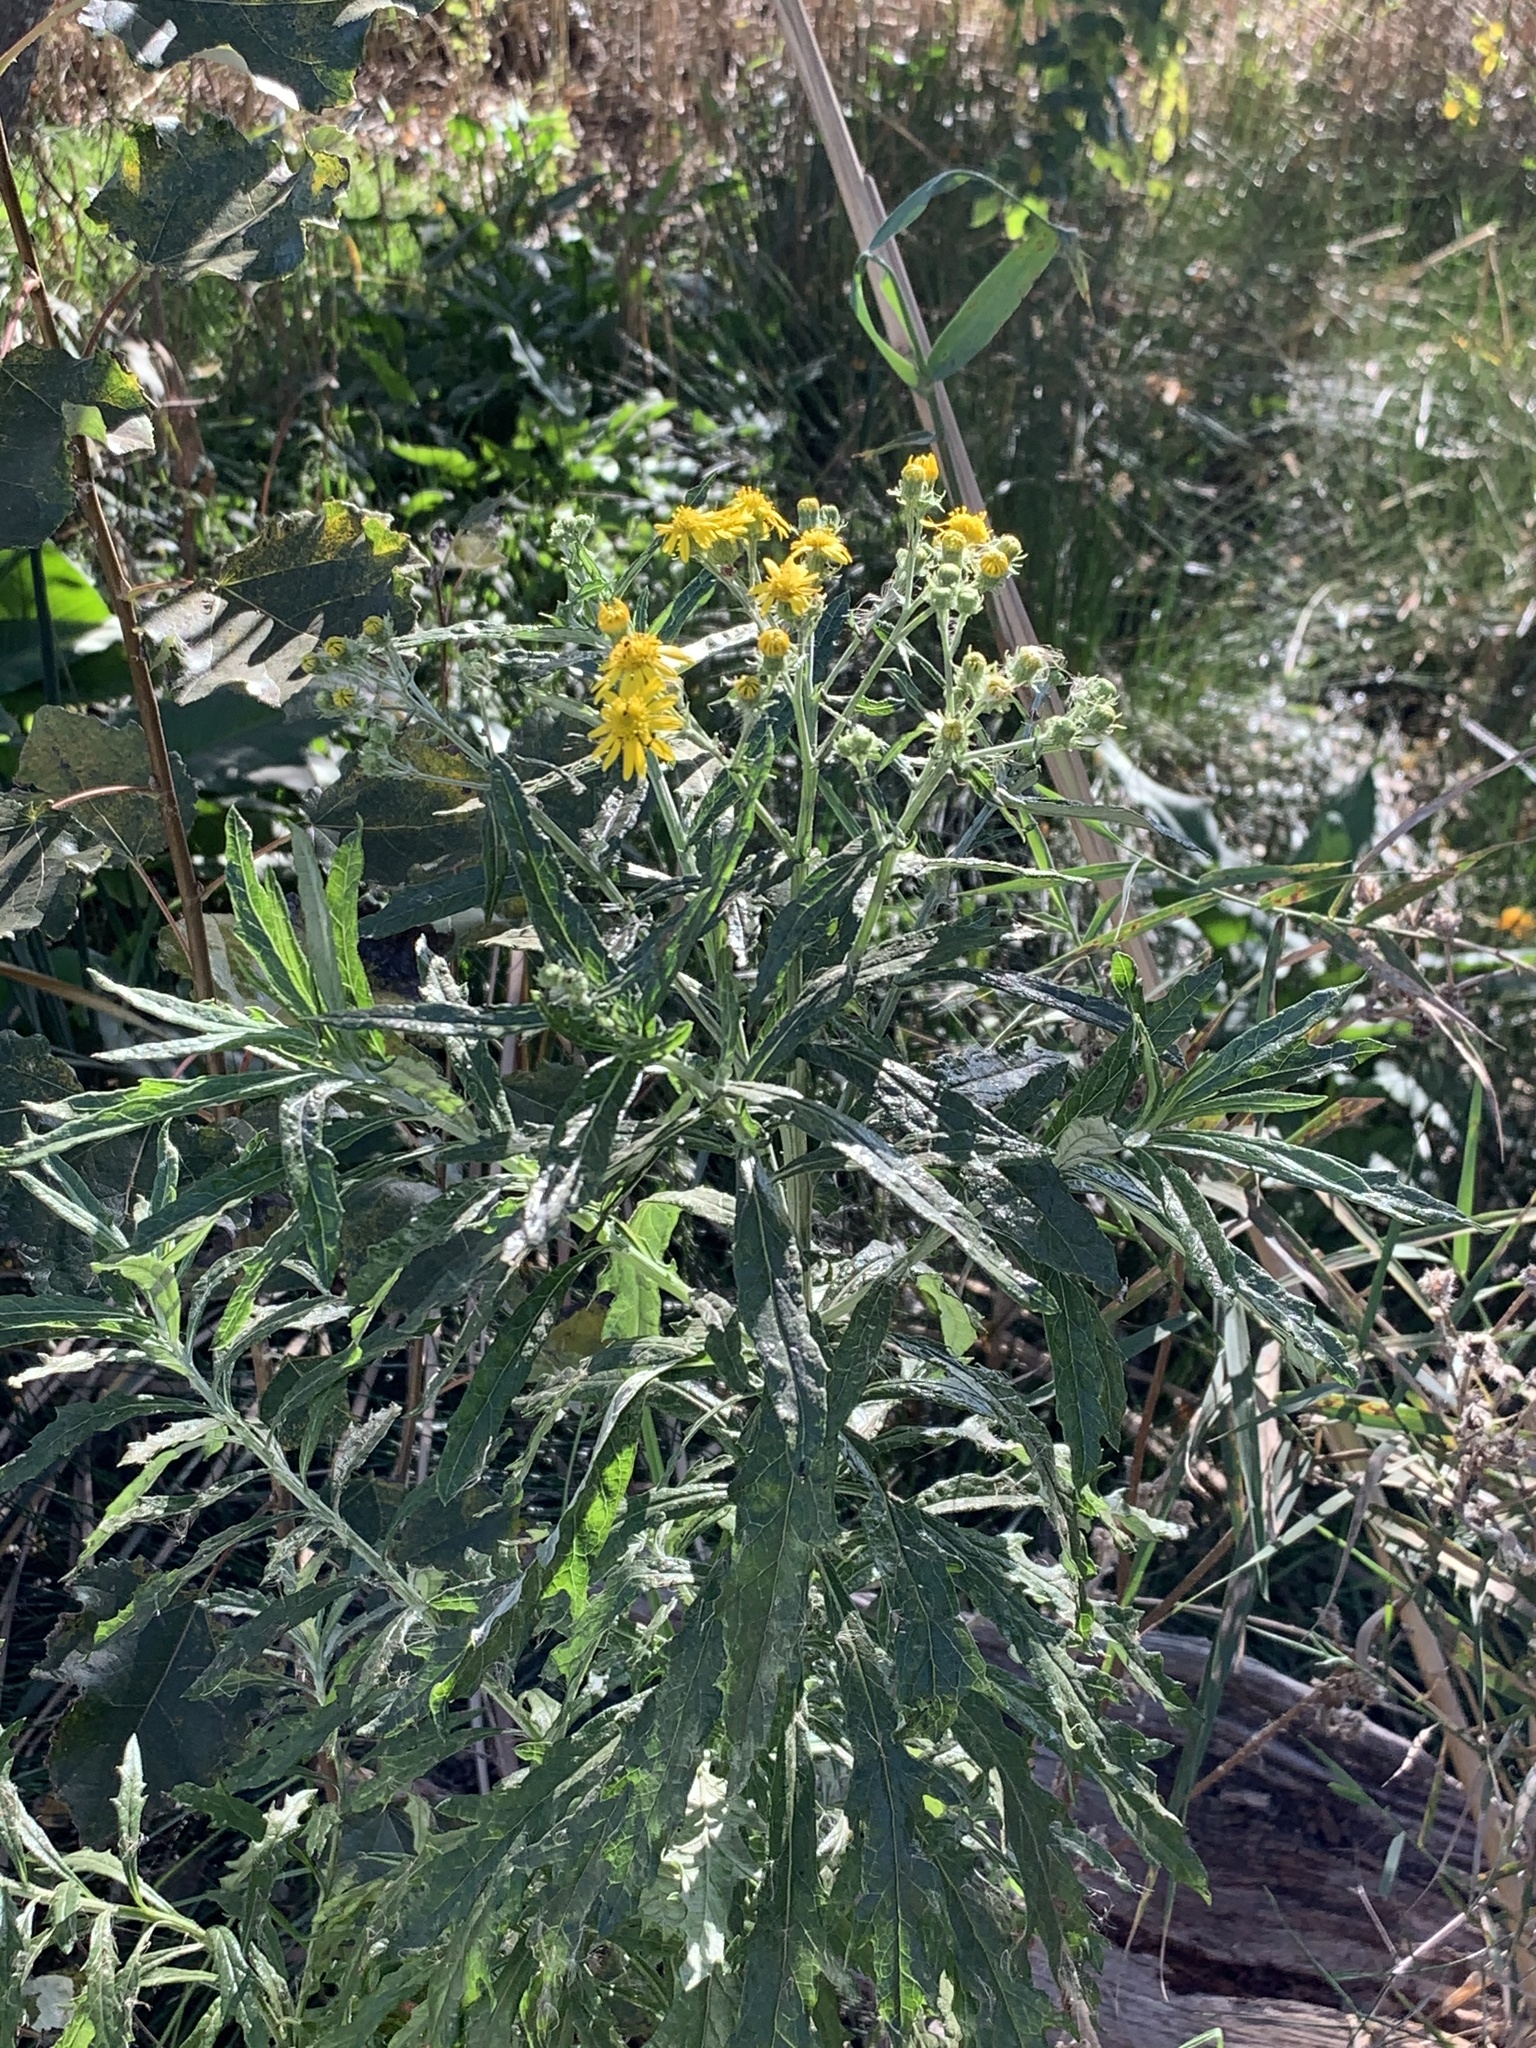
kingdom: Plantae
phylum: Tracheophyta
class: Magnoliopsida
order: Asterales
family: Asteraceae
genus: Senecio
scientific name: Senecio pterophorus
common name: Shoddy ragwort
